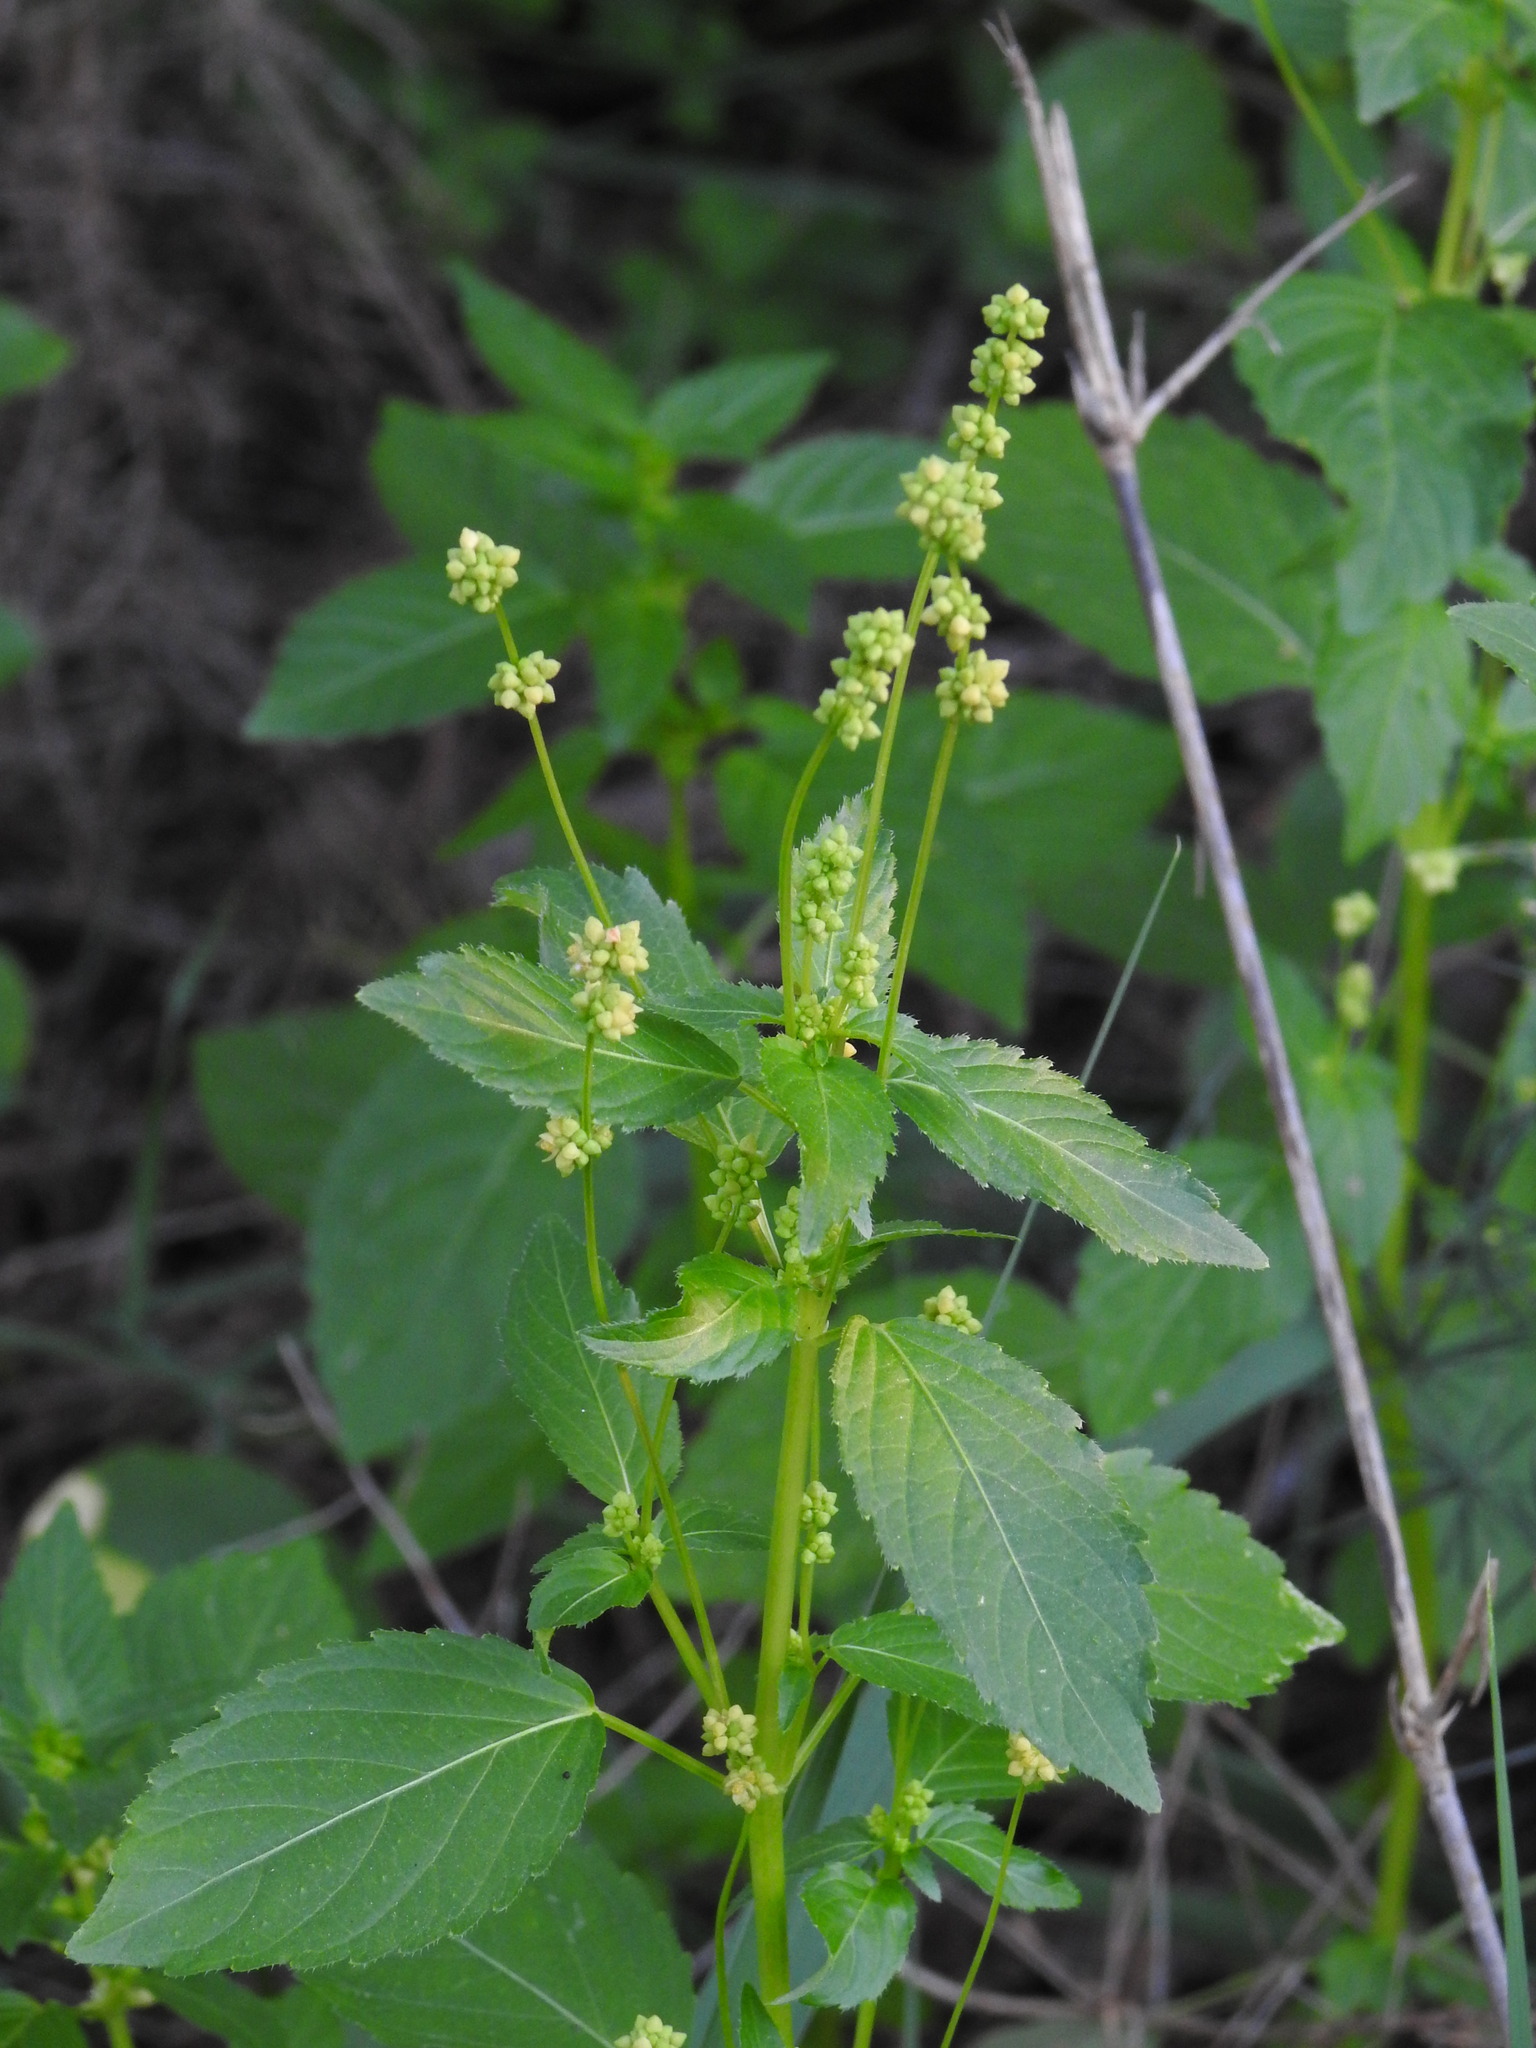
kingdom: Plantae
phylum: Tracheophyta
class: Magnoliopsida
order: Malpighiales
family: Euphorbiaceae
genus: Mercurialis
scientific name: Mercurialis annua
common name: Annual mercury
